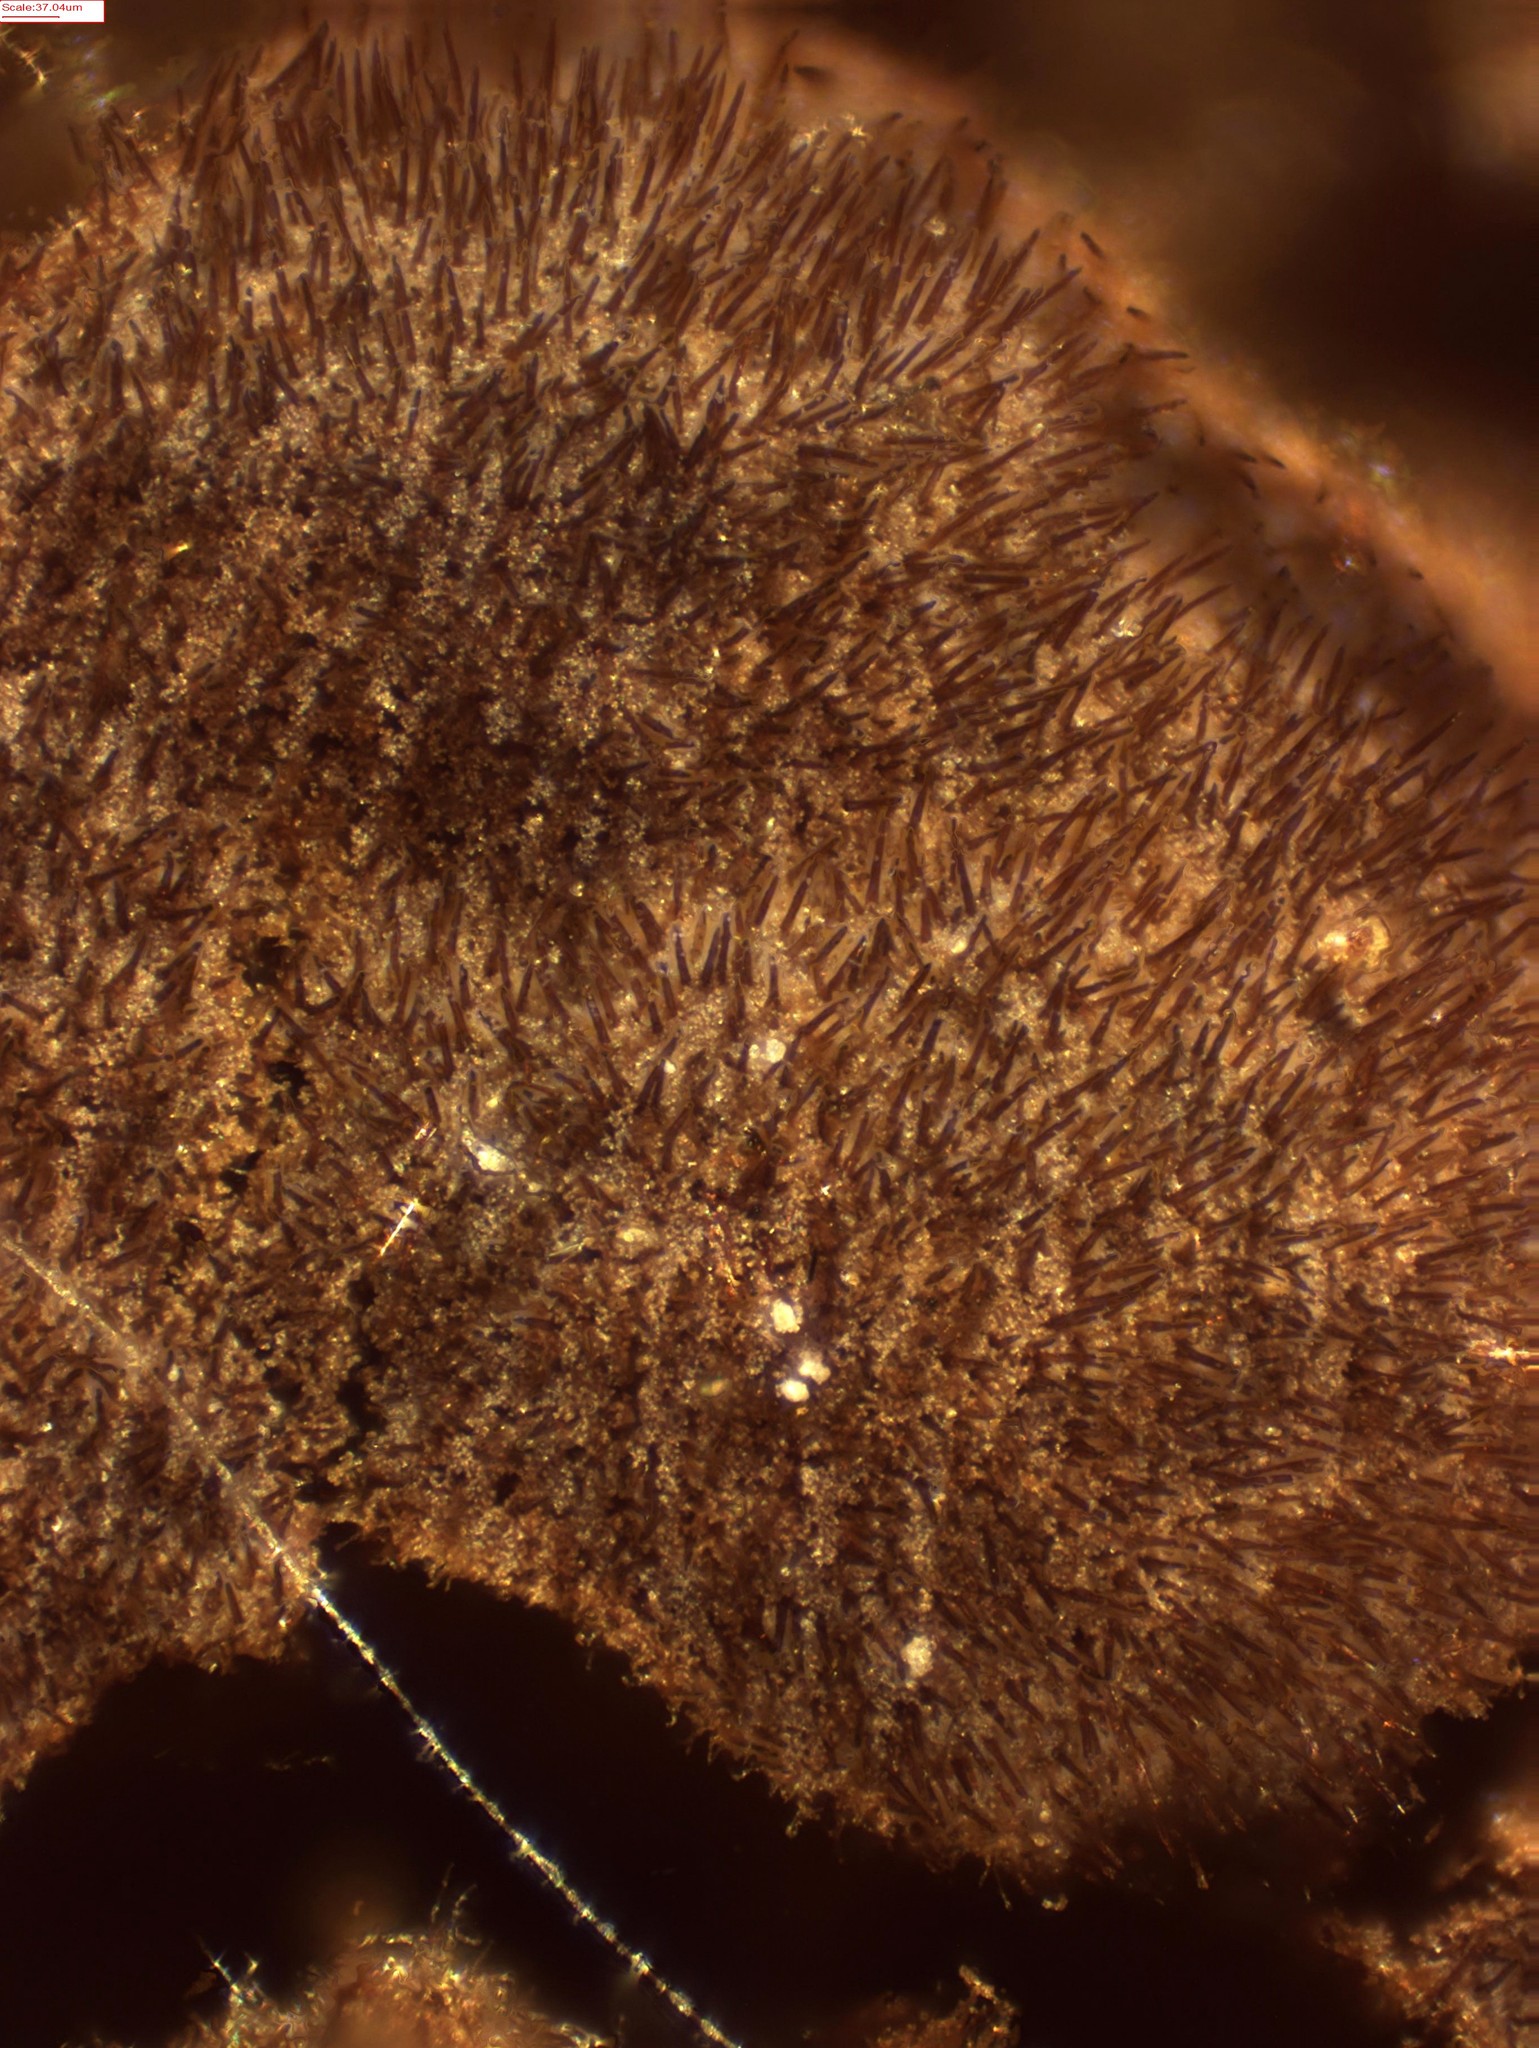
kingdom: Fungi
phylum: Basidiomycota
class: Agaricomycetes
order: Hymenochaetales
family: Hymenochaetaceae
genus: Hymenochaete
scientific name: Hymenochaete fuliginosa
